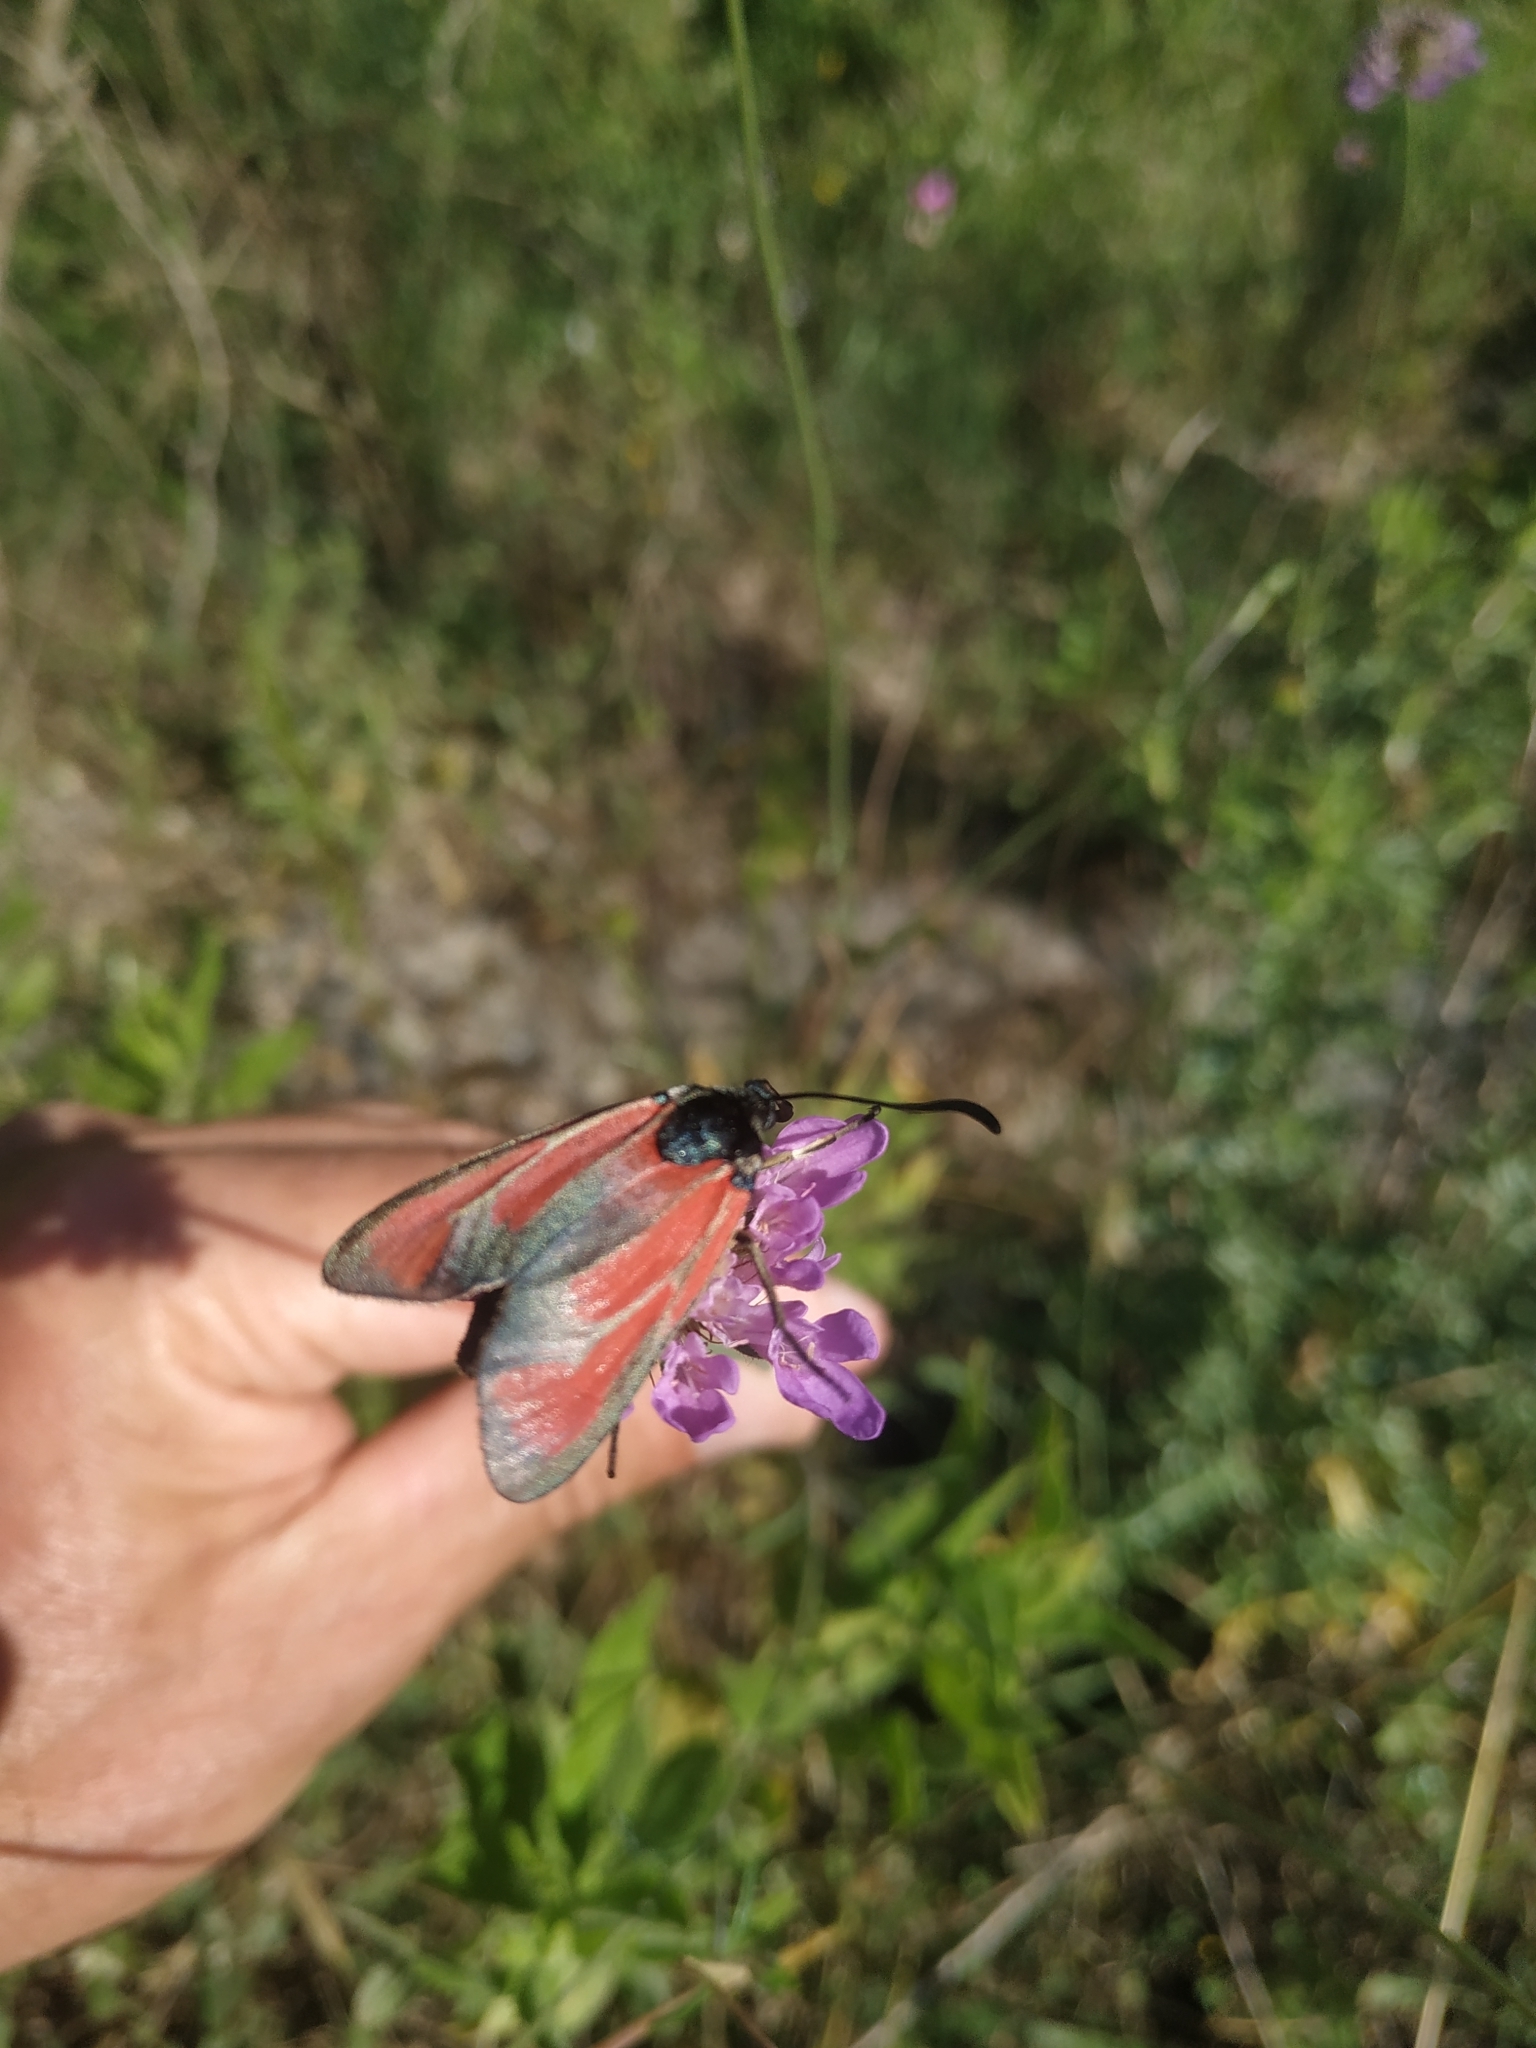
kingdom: Animalia
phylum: Arthropoda
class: Insecta
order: Lepidoptera
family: Zygaenidae
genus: Zygaena
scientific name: Zygaena erythrus
